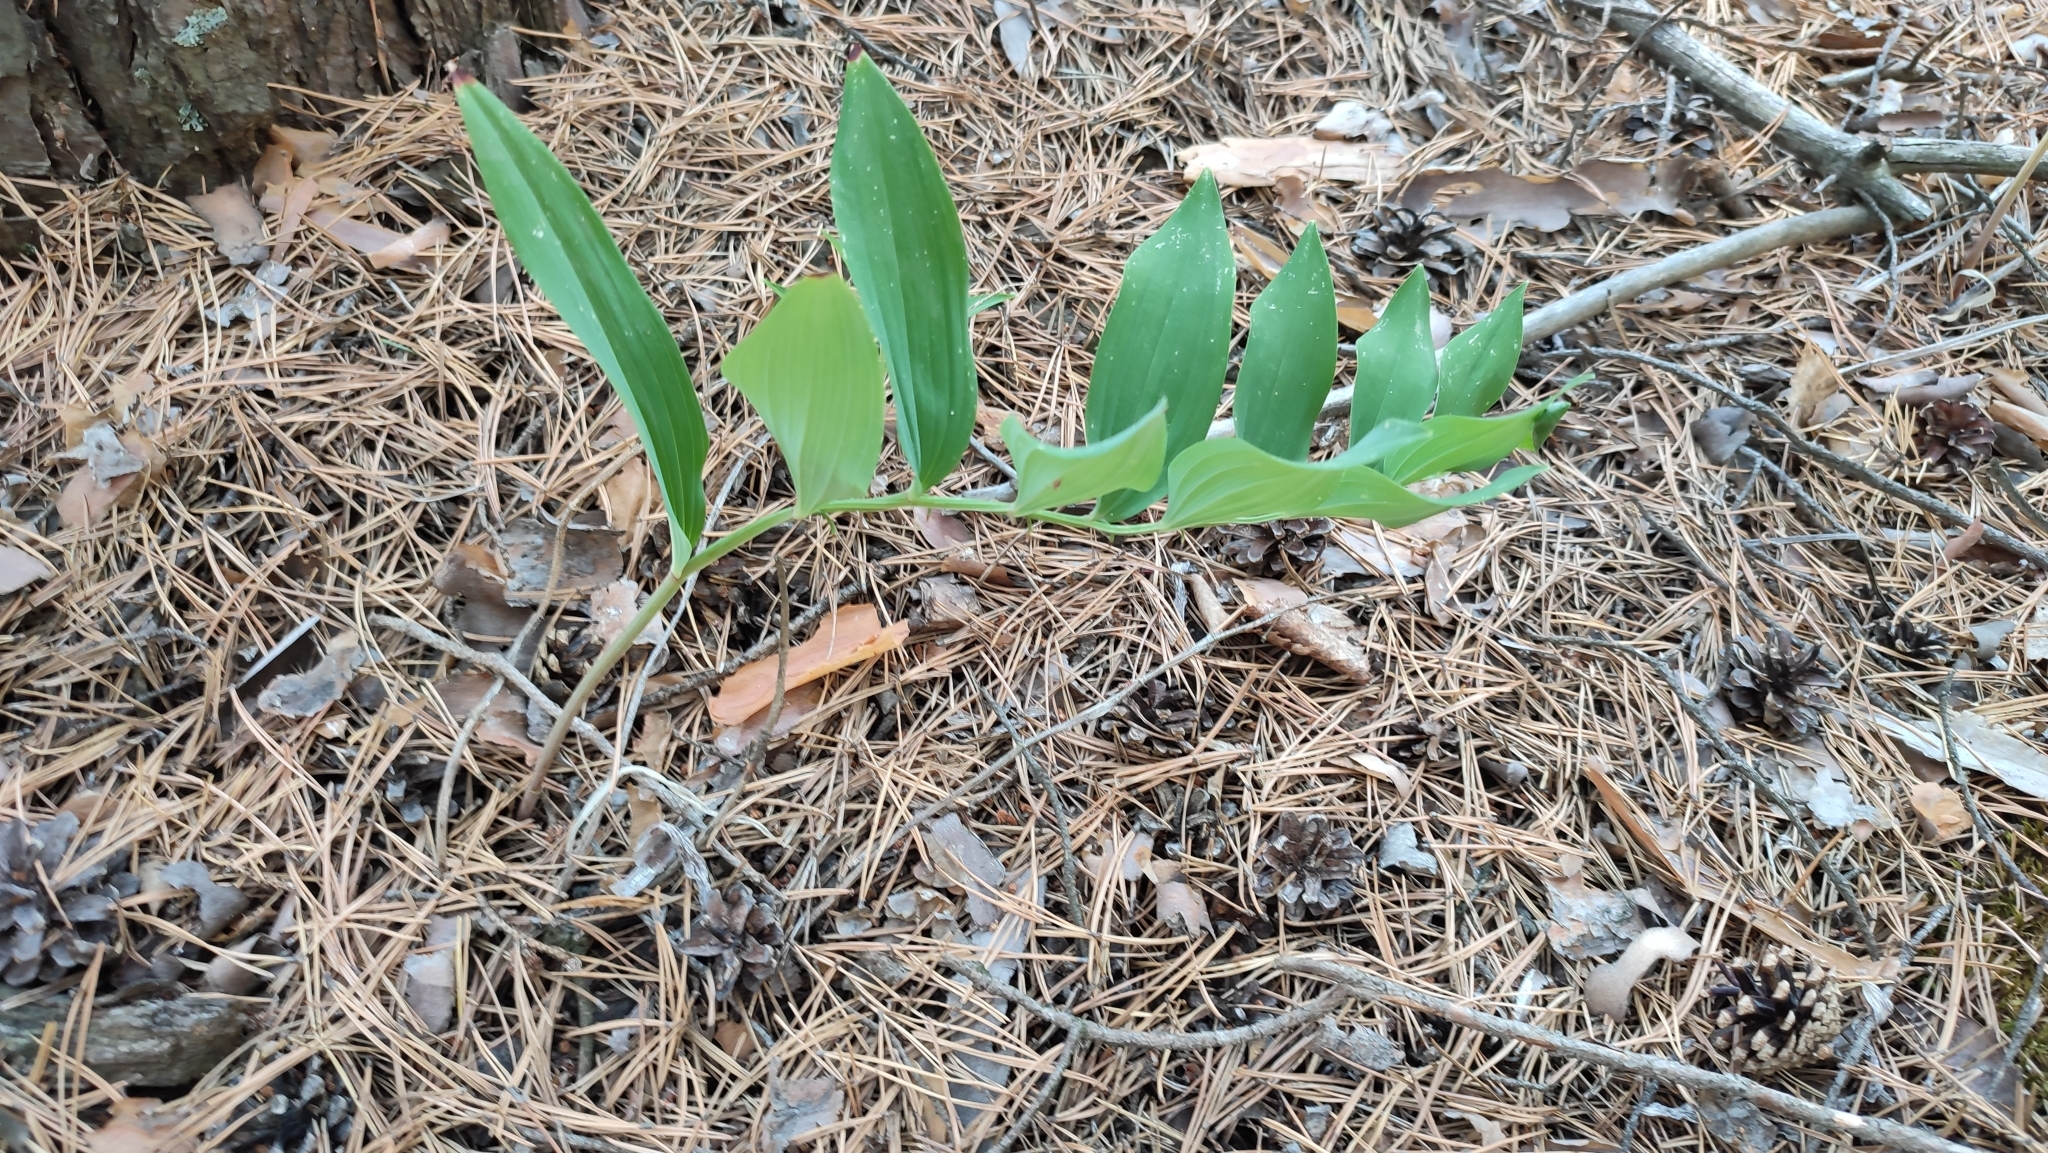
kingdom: Plantae
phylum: Tracheophyta
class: Liliopsida
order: Asparagales
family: Asparagaceae
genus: Polygonatum
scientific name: Polygonatum odoratum
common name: Angular solomon's-seal
